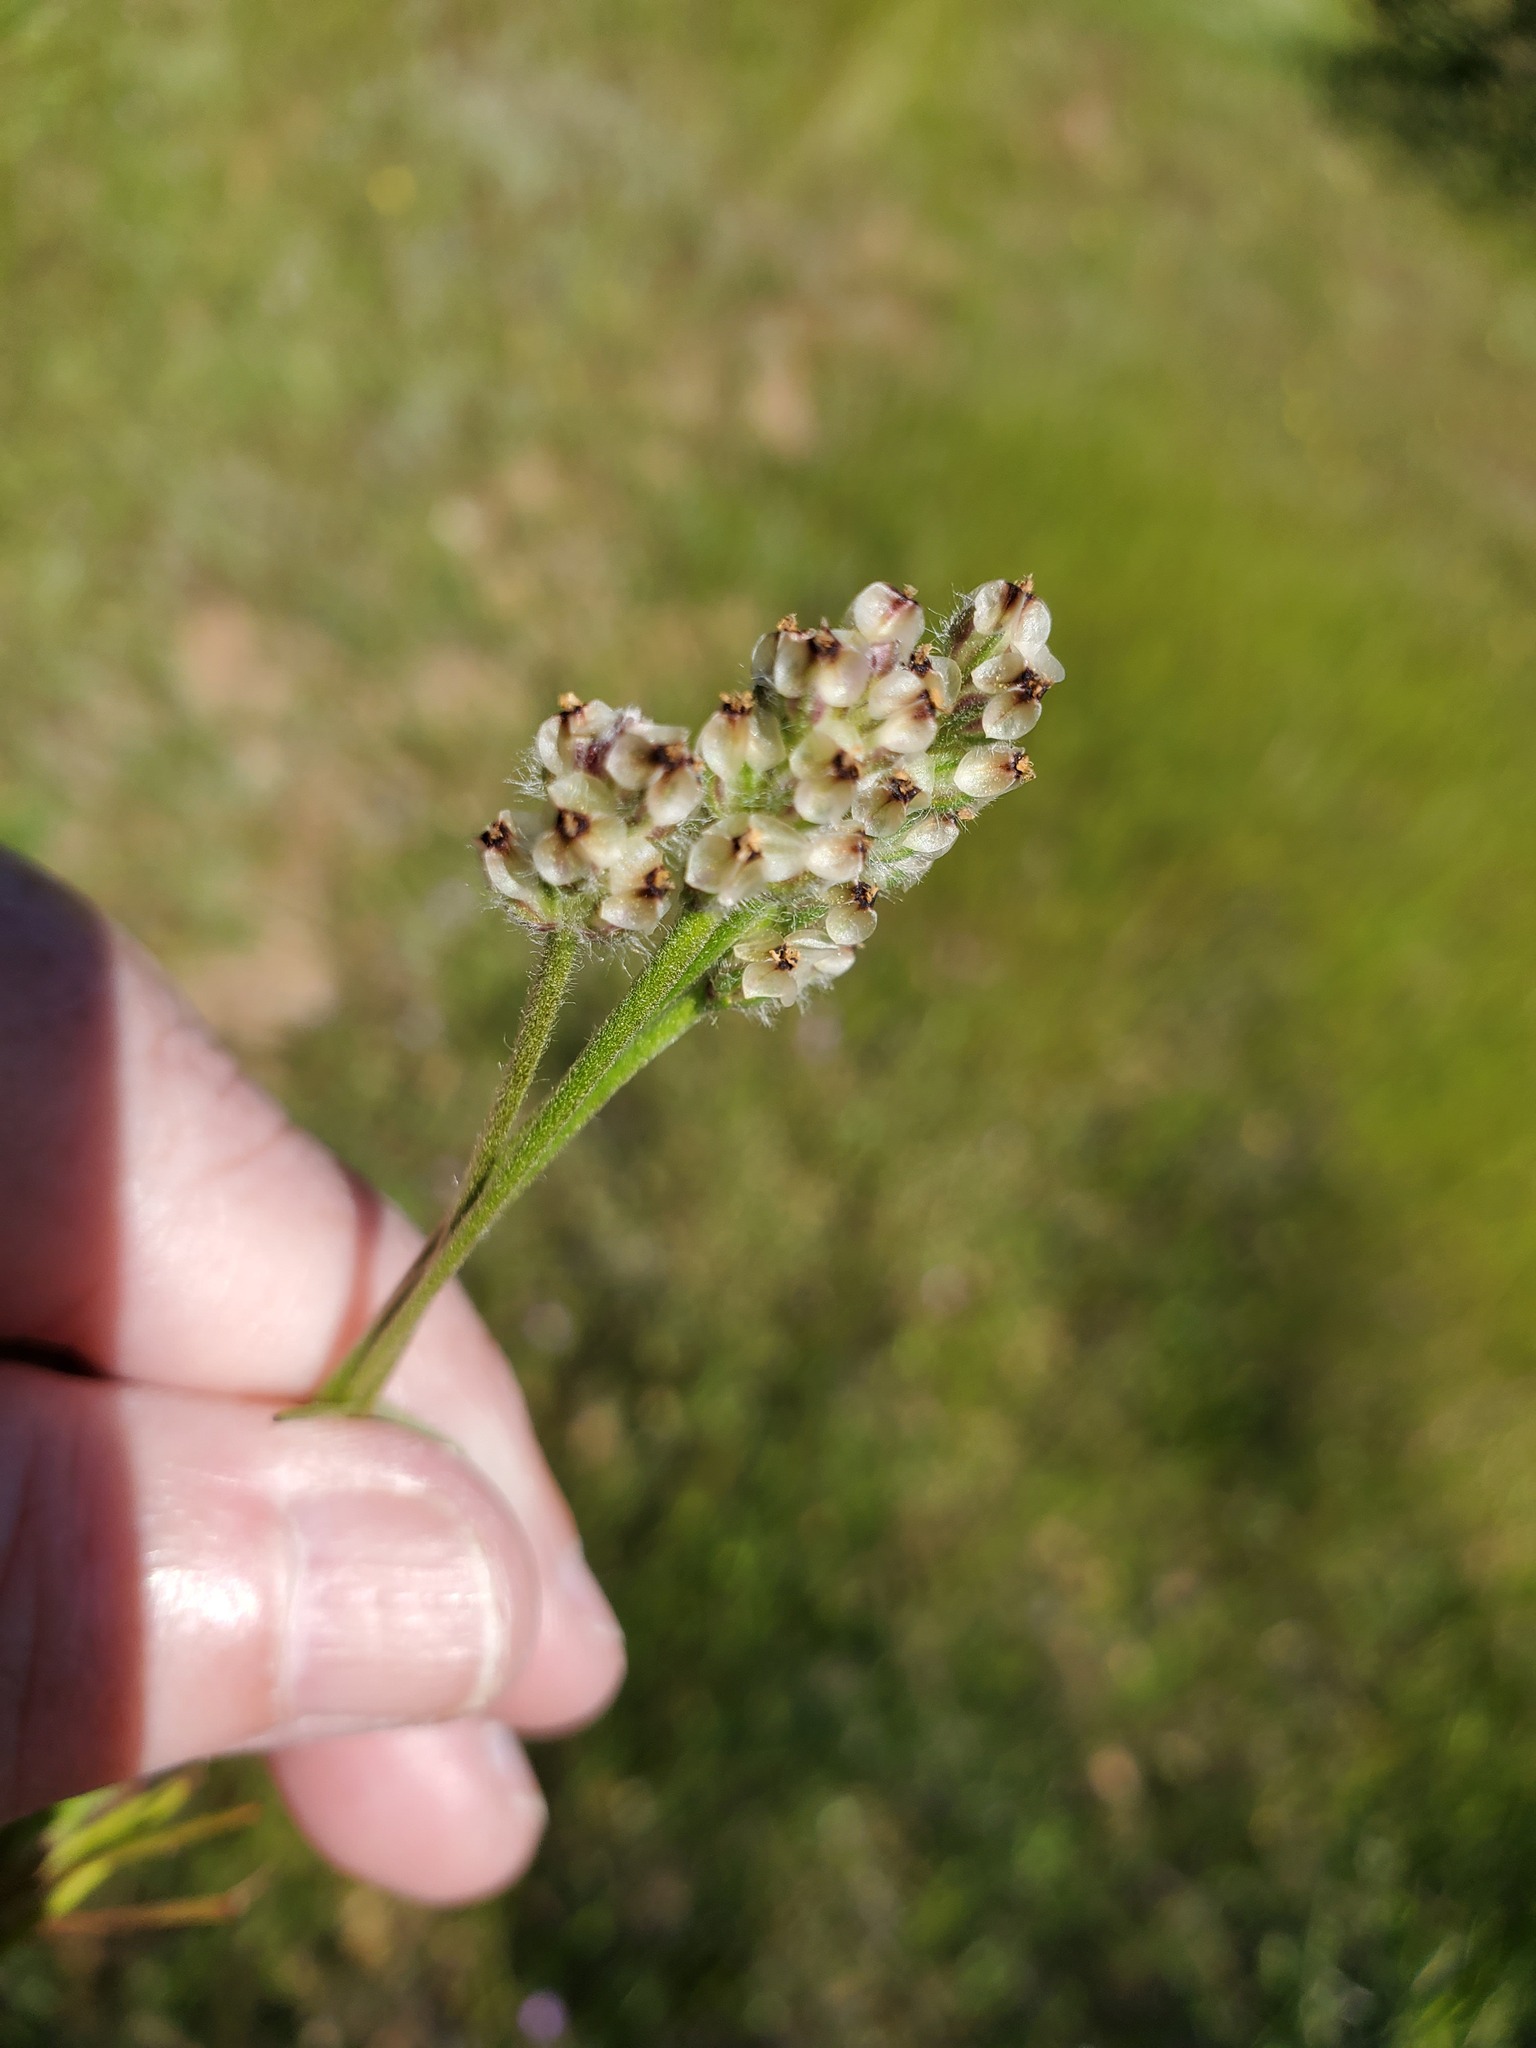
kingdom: Plantae
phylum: Tracheophyta
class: Magnoliopsida
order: Lamiales
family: Plantaginaceae
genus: Plantago
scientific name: Plantago erecta
